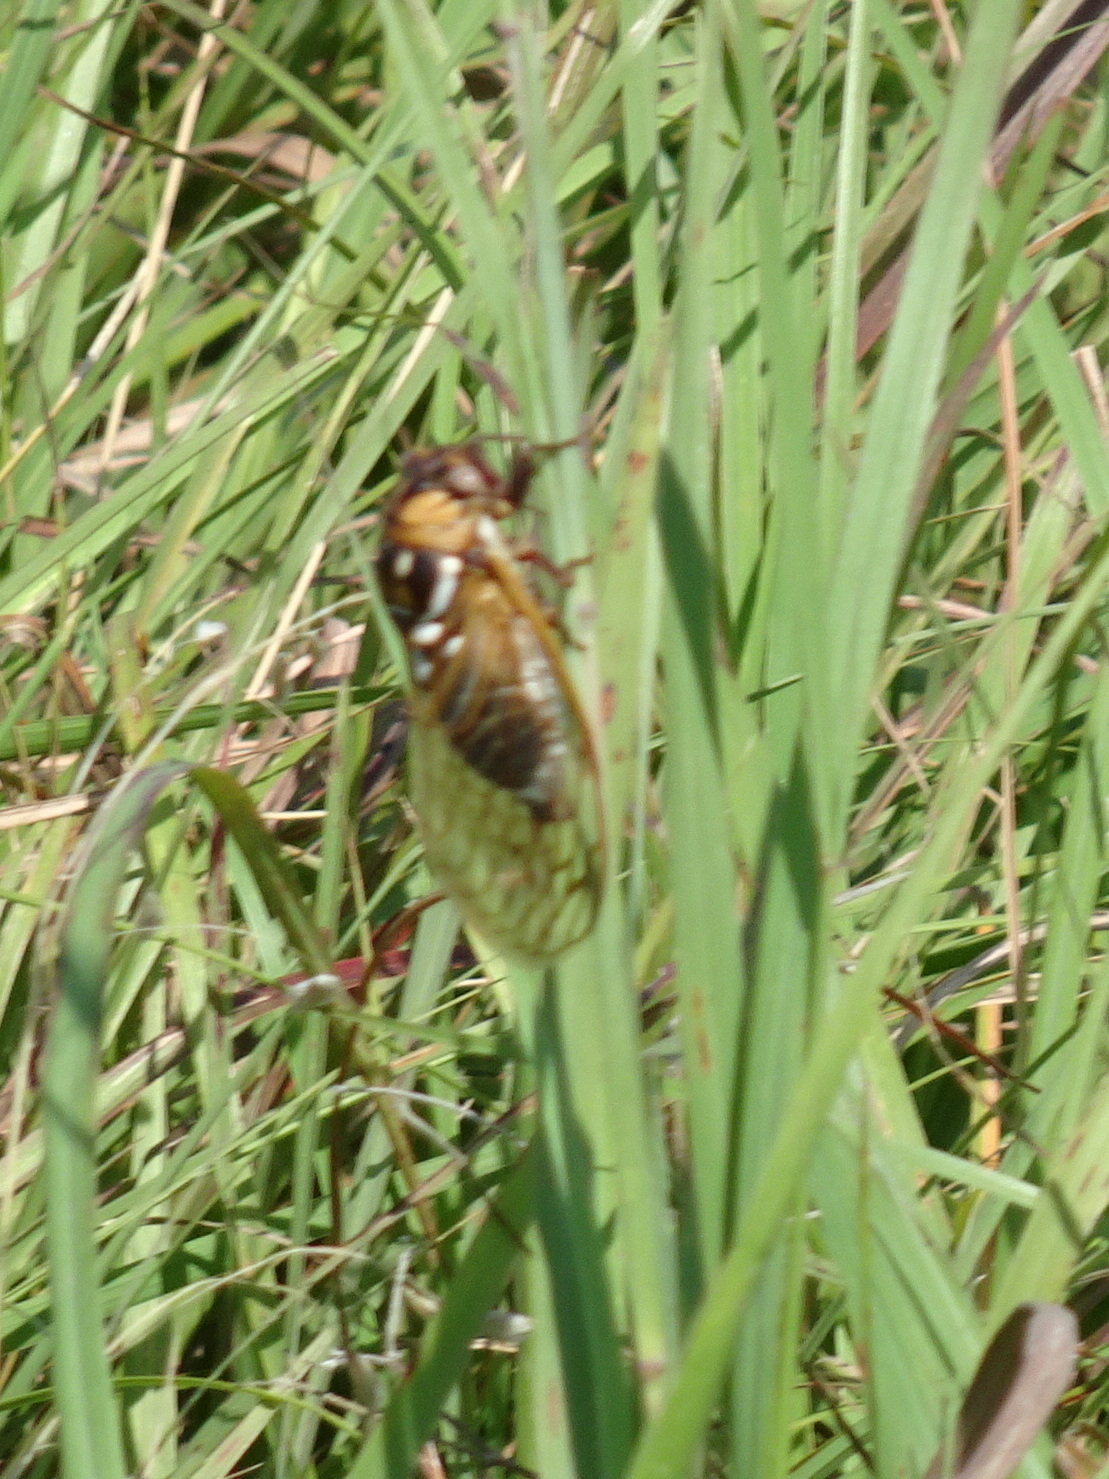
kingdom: Animalia
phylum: Arthropoda
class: Insecta
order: Hemiptera
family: Cicadidae
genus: Megatibicen
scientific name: Megatibicen dorsatus
